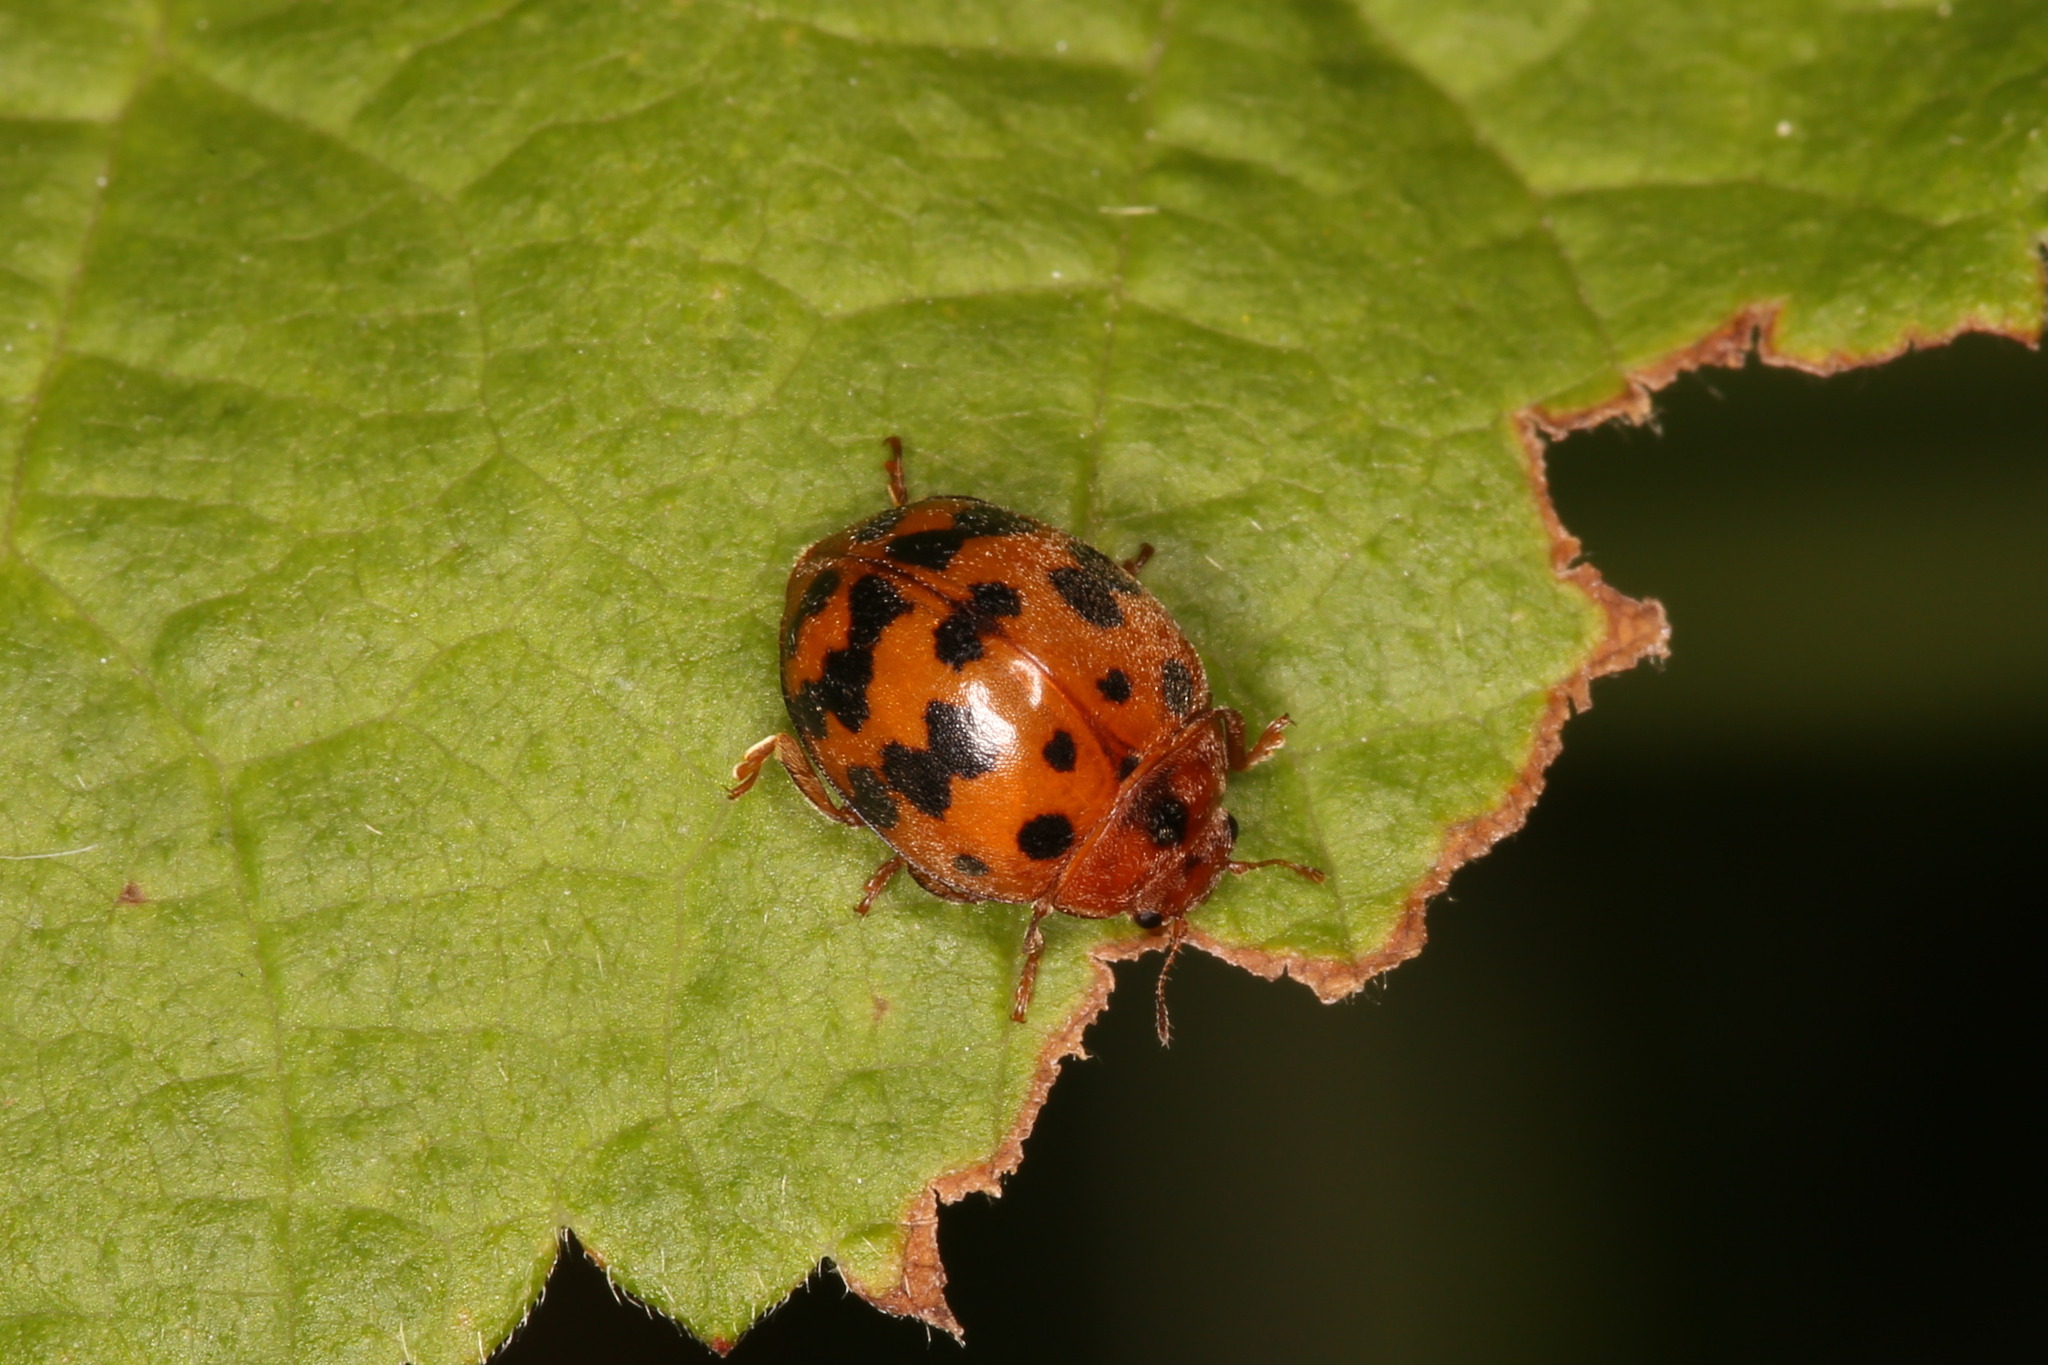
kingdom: Animalia
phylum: Arthropoda
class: Insecta
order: Coleoptera
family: Coccinellidae
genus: Subcoccinella
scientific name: Subcoccinella vigintiquatuorpunctata
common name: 24-spot ladybird
